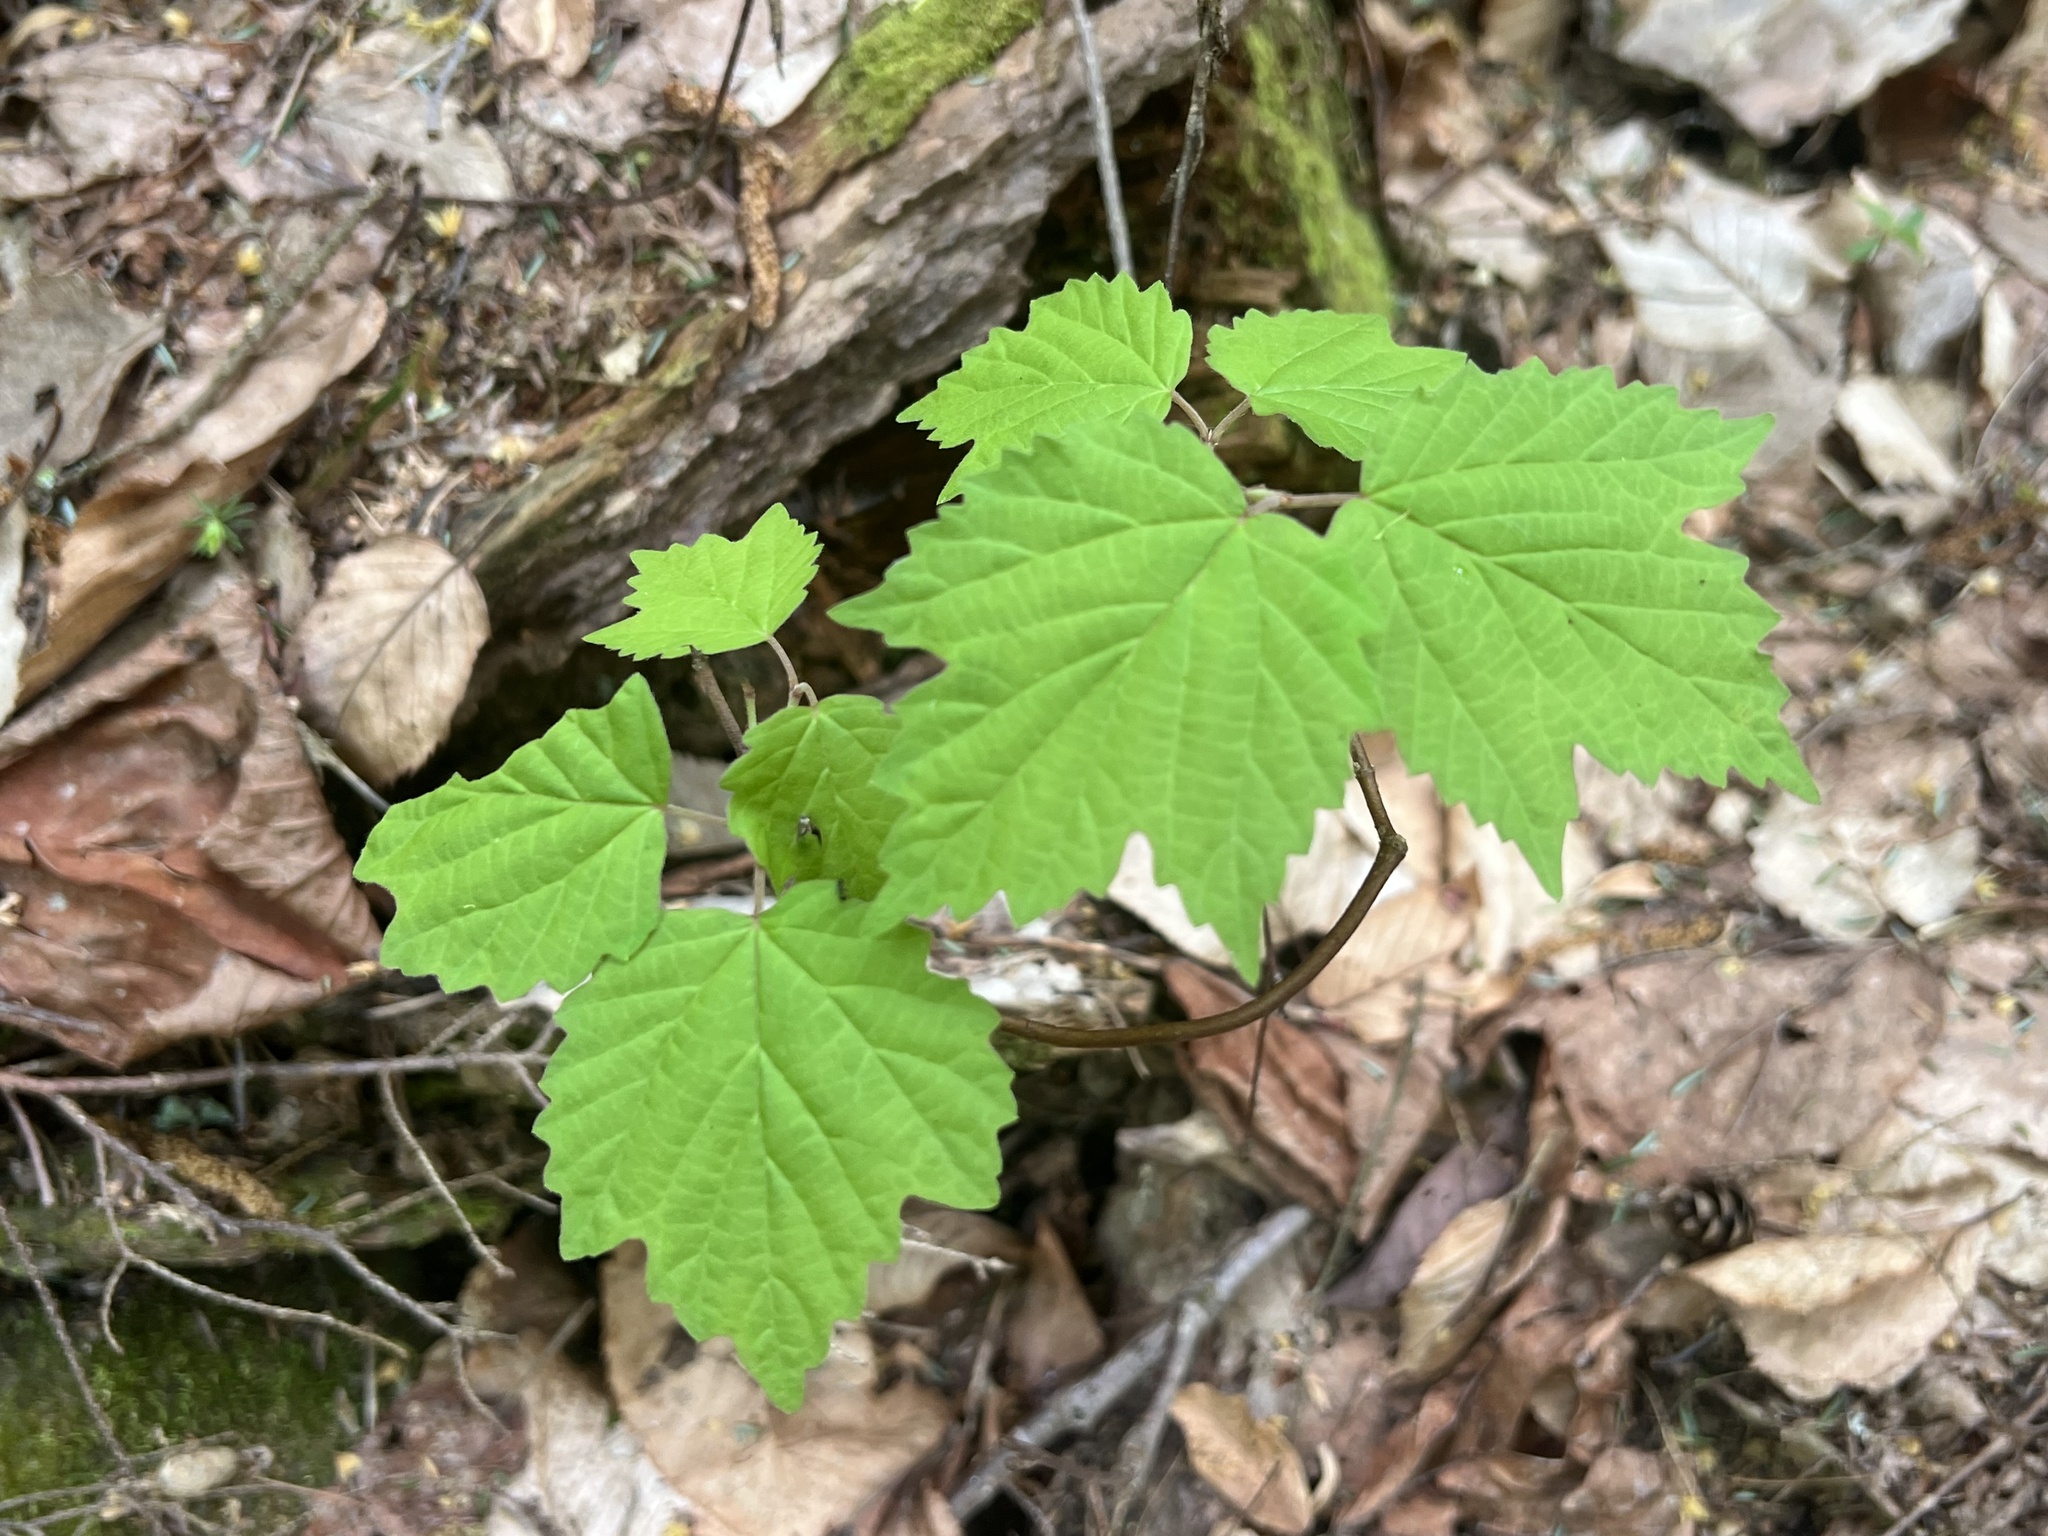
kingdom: Plantae
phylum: Tracheophyta
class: Magnoliopsida
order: Dipsacales
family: Viburnaceae
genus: Viburnum
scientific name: Viburnum acerifolium
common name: Dockmackie
